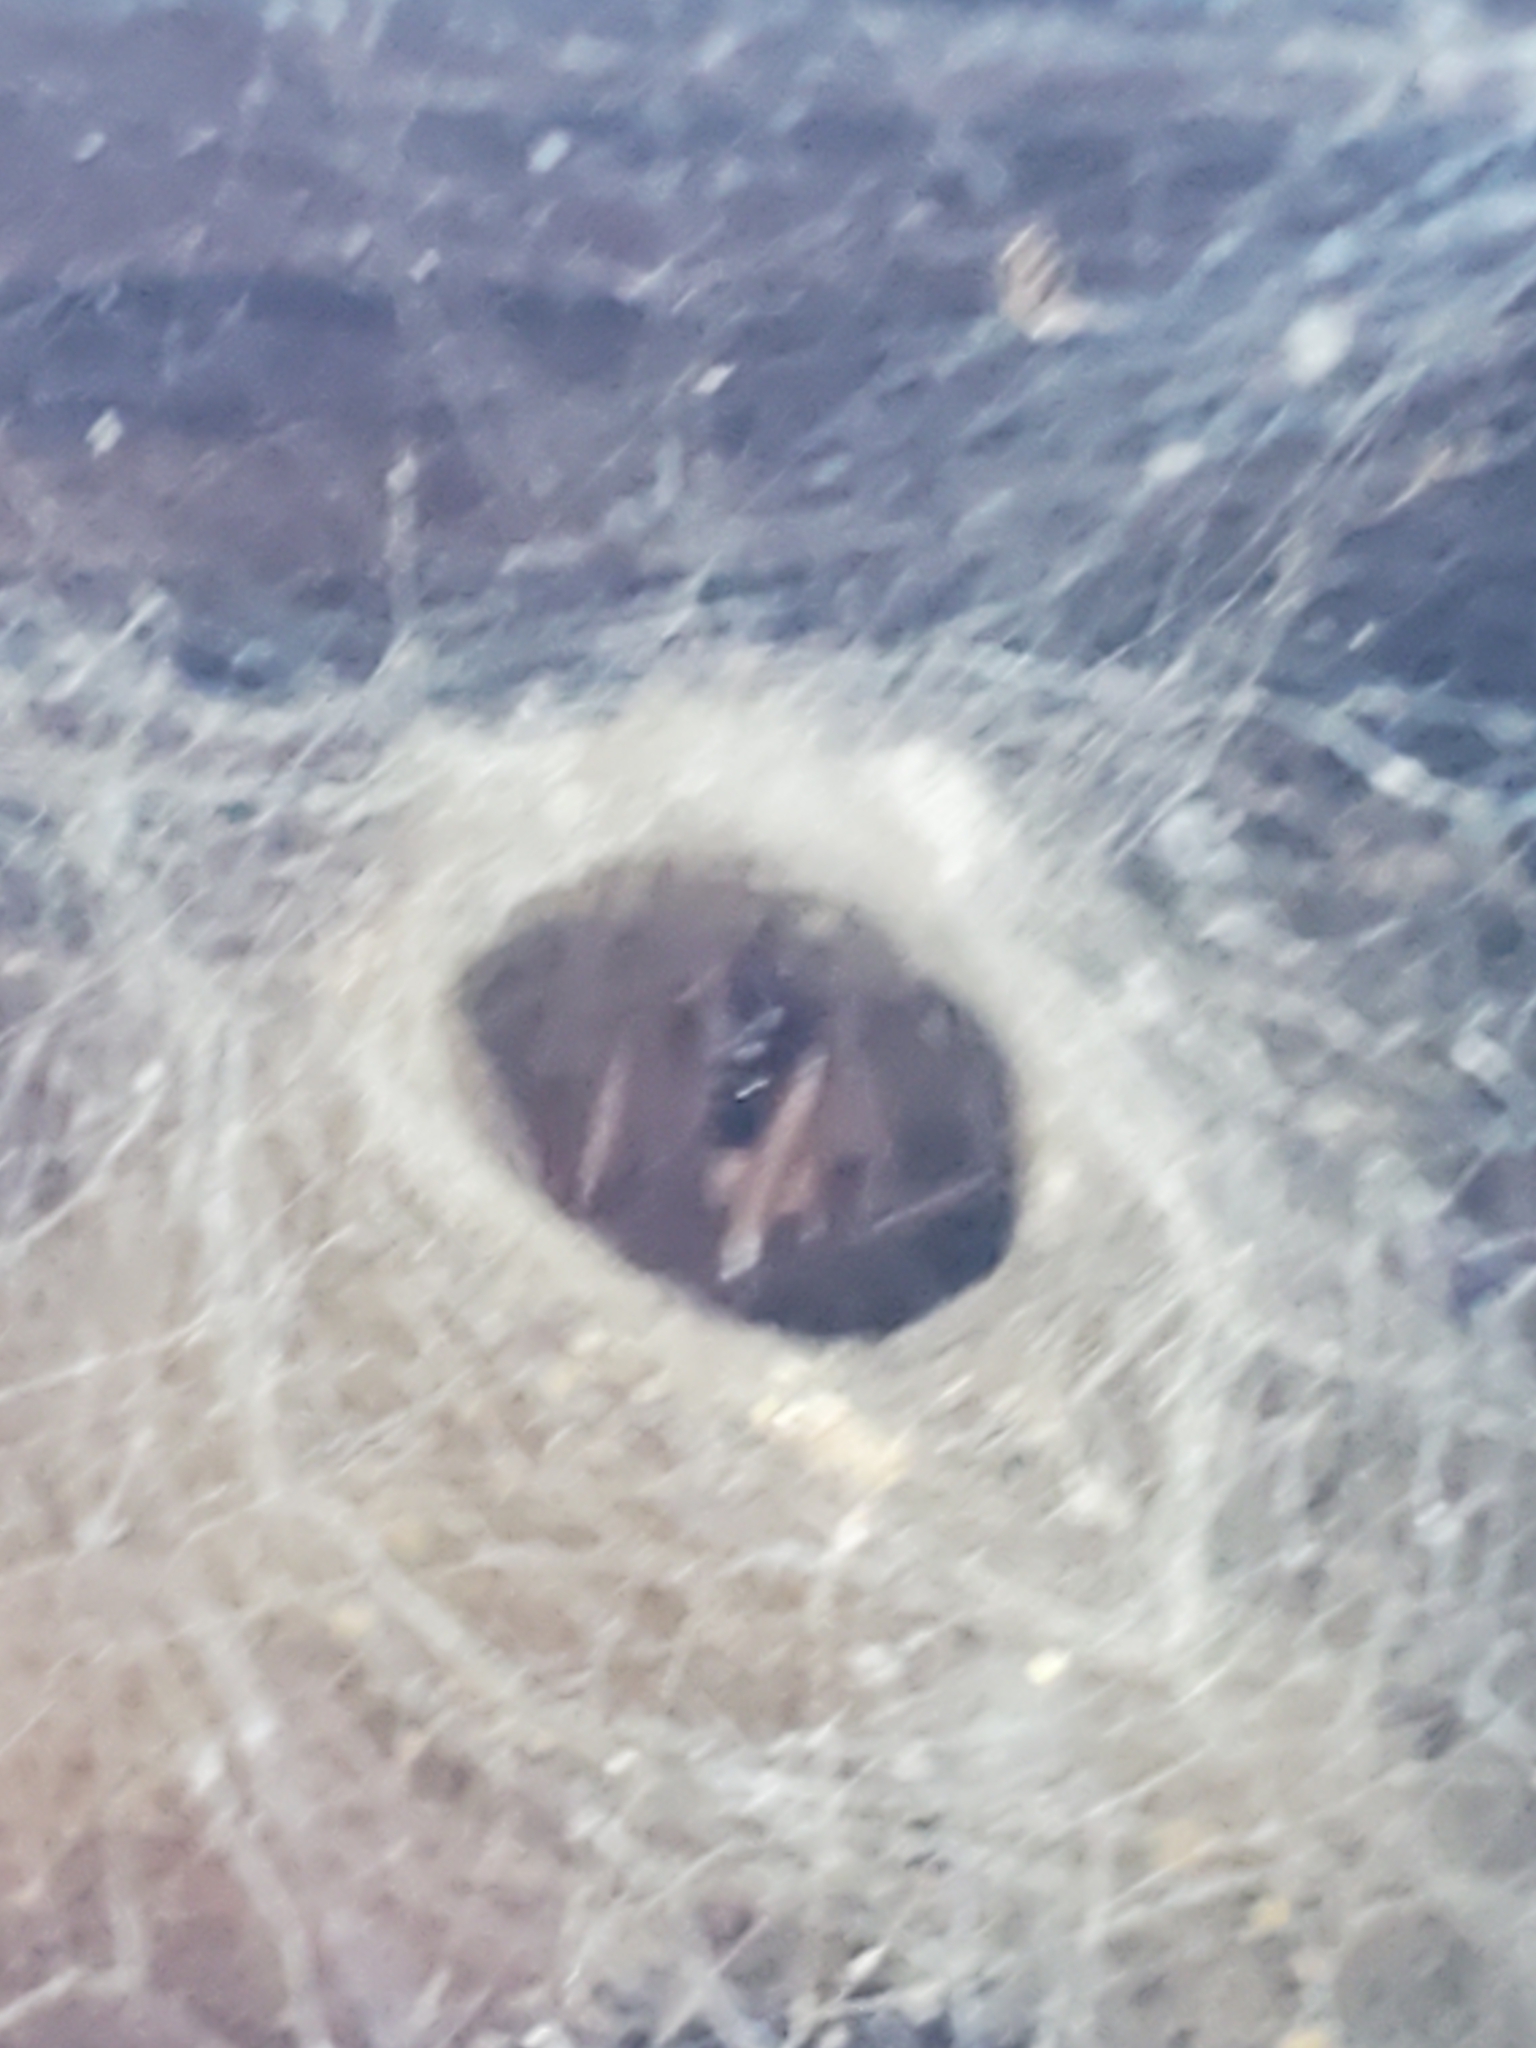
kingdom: Animalia
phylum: Arthropoda
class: Arachnida
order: Araneae
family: Theridiidae
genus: Steatoda
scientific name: Steatoda nobilis
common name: Cobweb weaver
